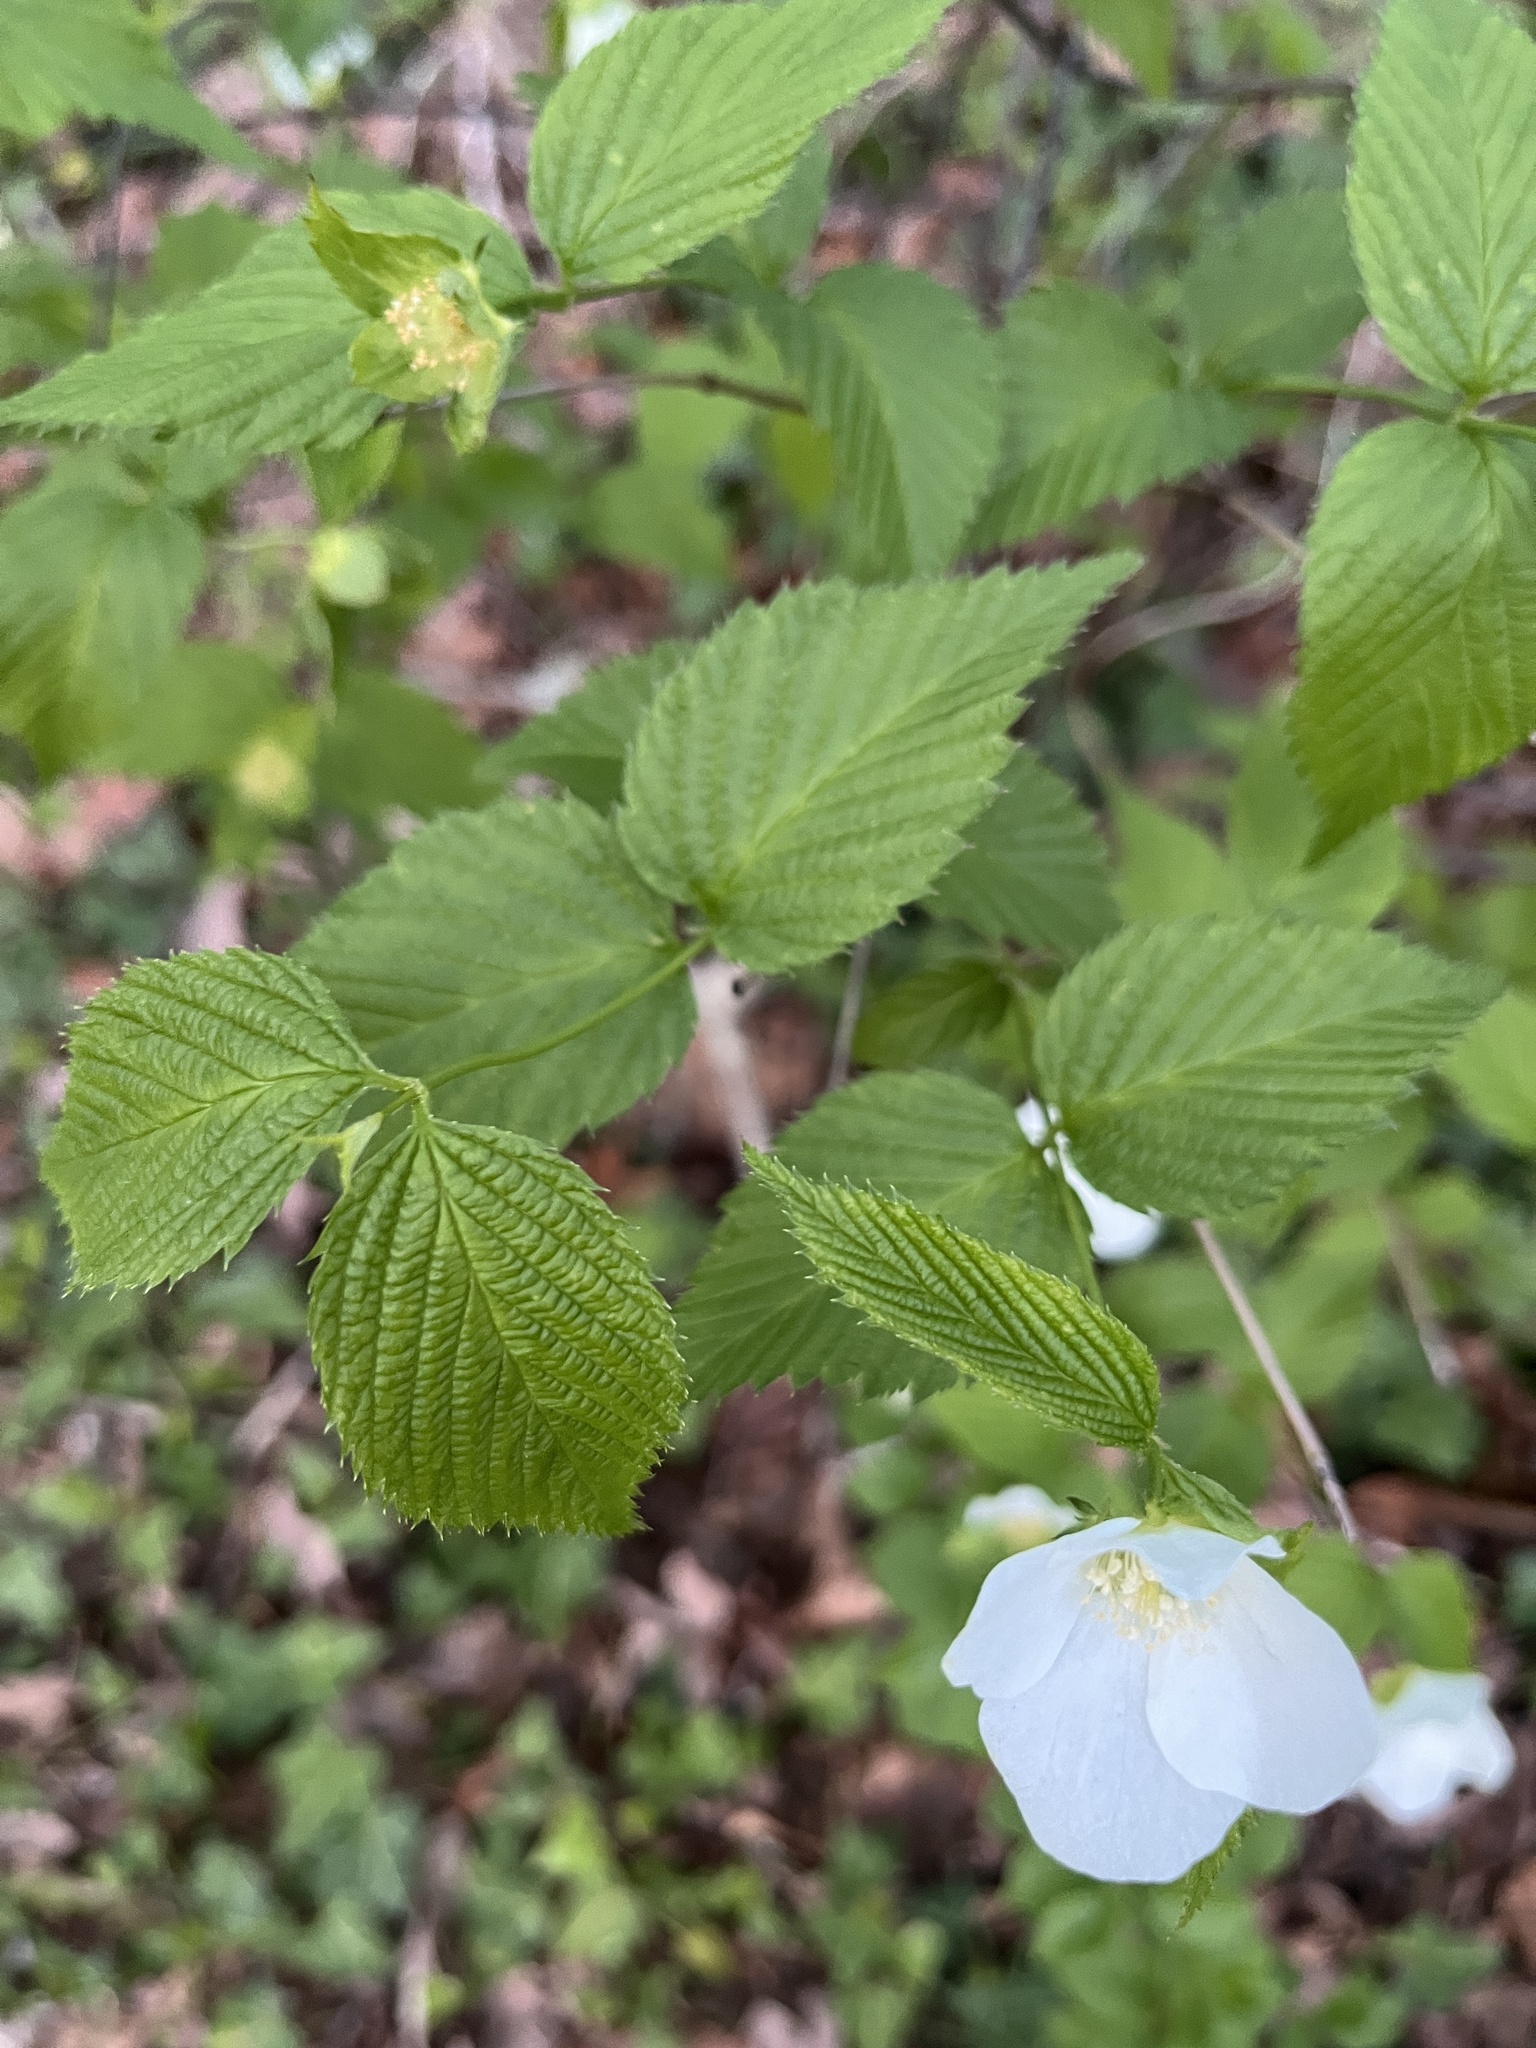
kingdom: Plantae
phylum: Tracheophyta
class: Magnoliopsida
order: Rosales
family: Rosaceae
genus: Rhodotypos
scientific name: Rhodotypos scandens
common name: Jetbead
